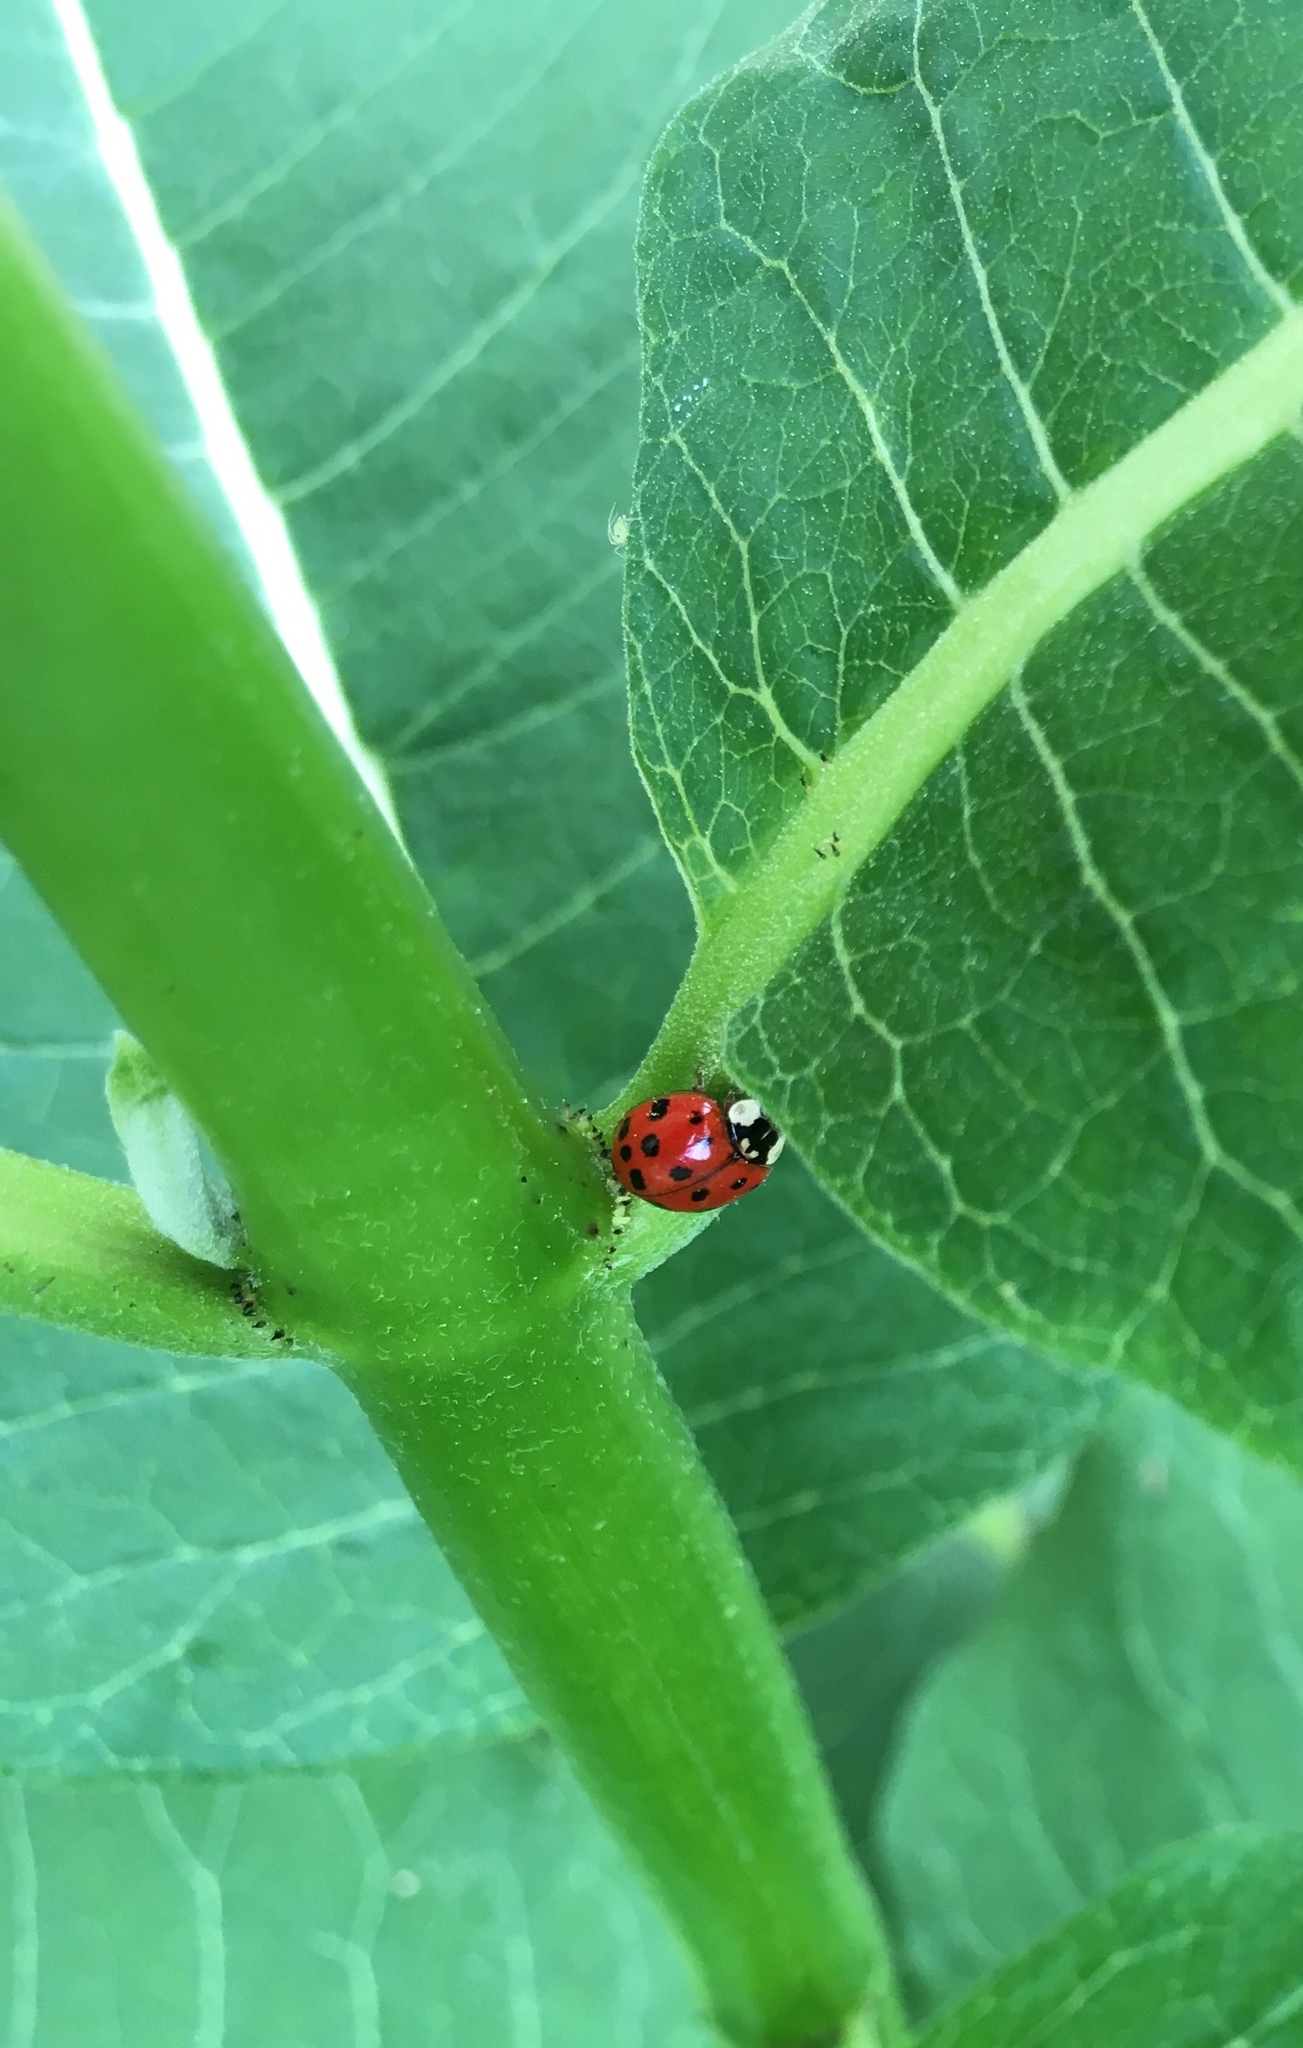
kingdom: Animalia
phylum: Arthropoda
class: Insecta
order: Coleoptera
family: Coccinellidae
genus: Harmonia
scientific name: Harmonia axyridis
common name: Harlequin ladybird
